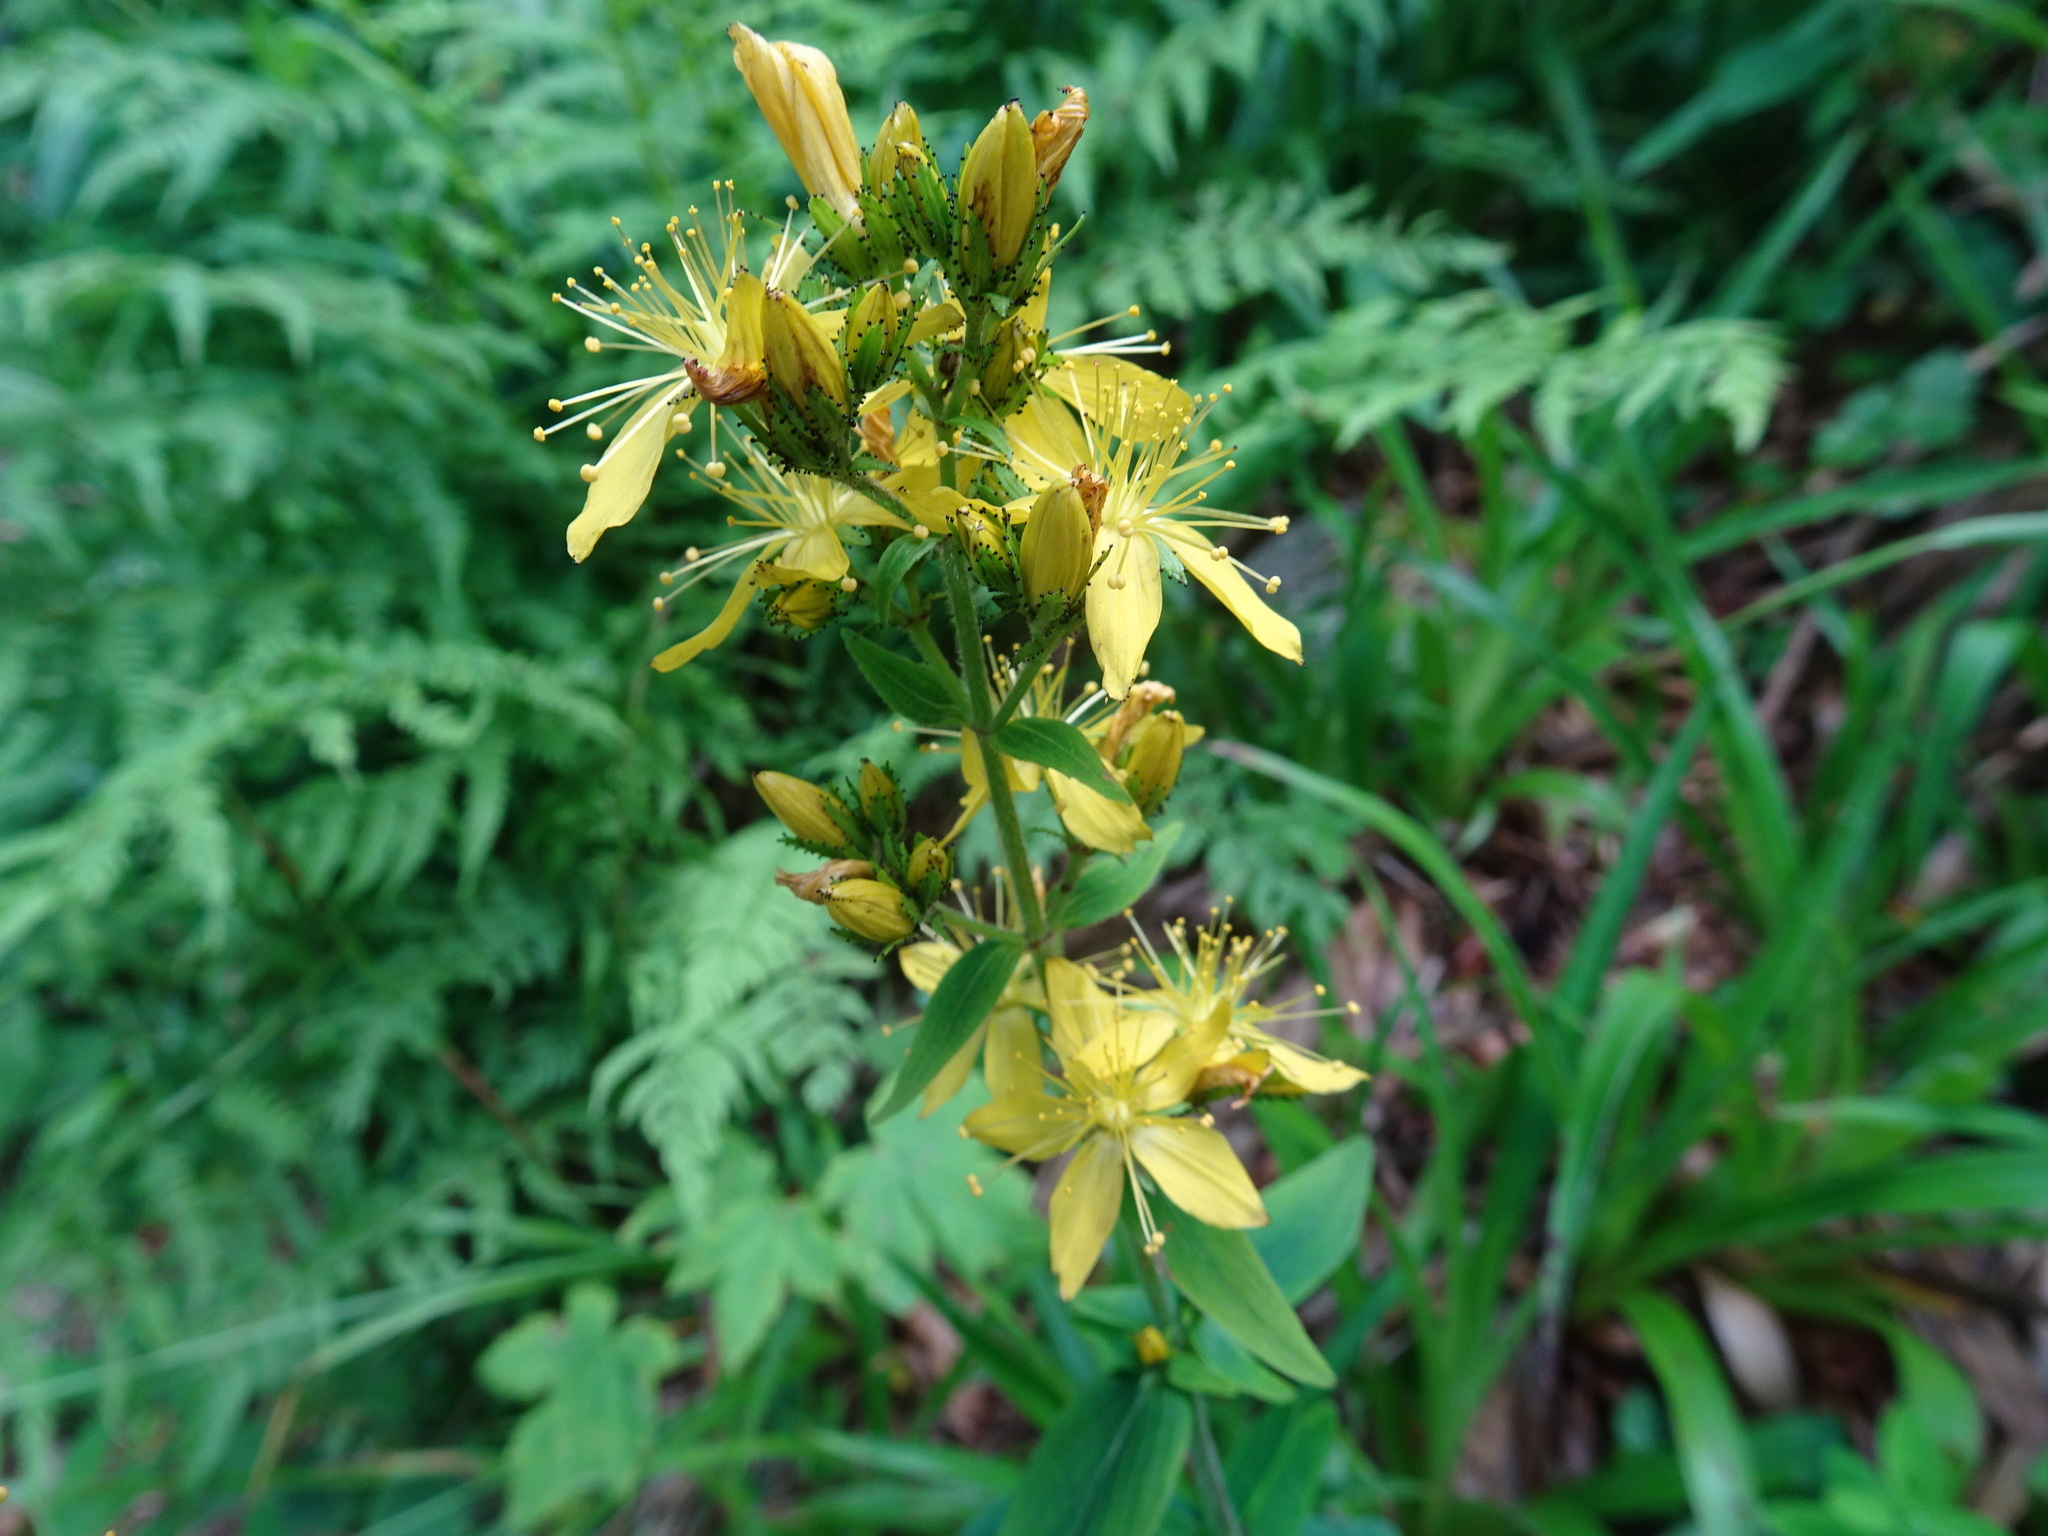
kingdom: Plantae
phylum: Tracheophyta
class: Magnoliopsida
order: Malpighiales
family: Hypericaceae
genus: Hypericum
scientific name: Hypericum hirsutum
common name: Hairy st. john's-wort
